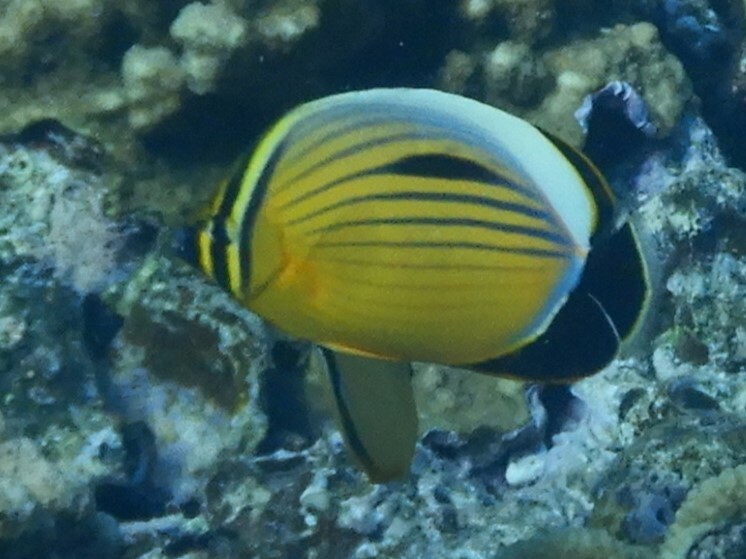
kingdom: Animalia
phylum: Chordata
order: Perciformes
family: Chaetodontidae
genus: Chaetodon
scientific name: Chaetodon austriacus
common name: Exquisite butterflyfish
